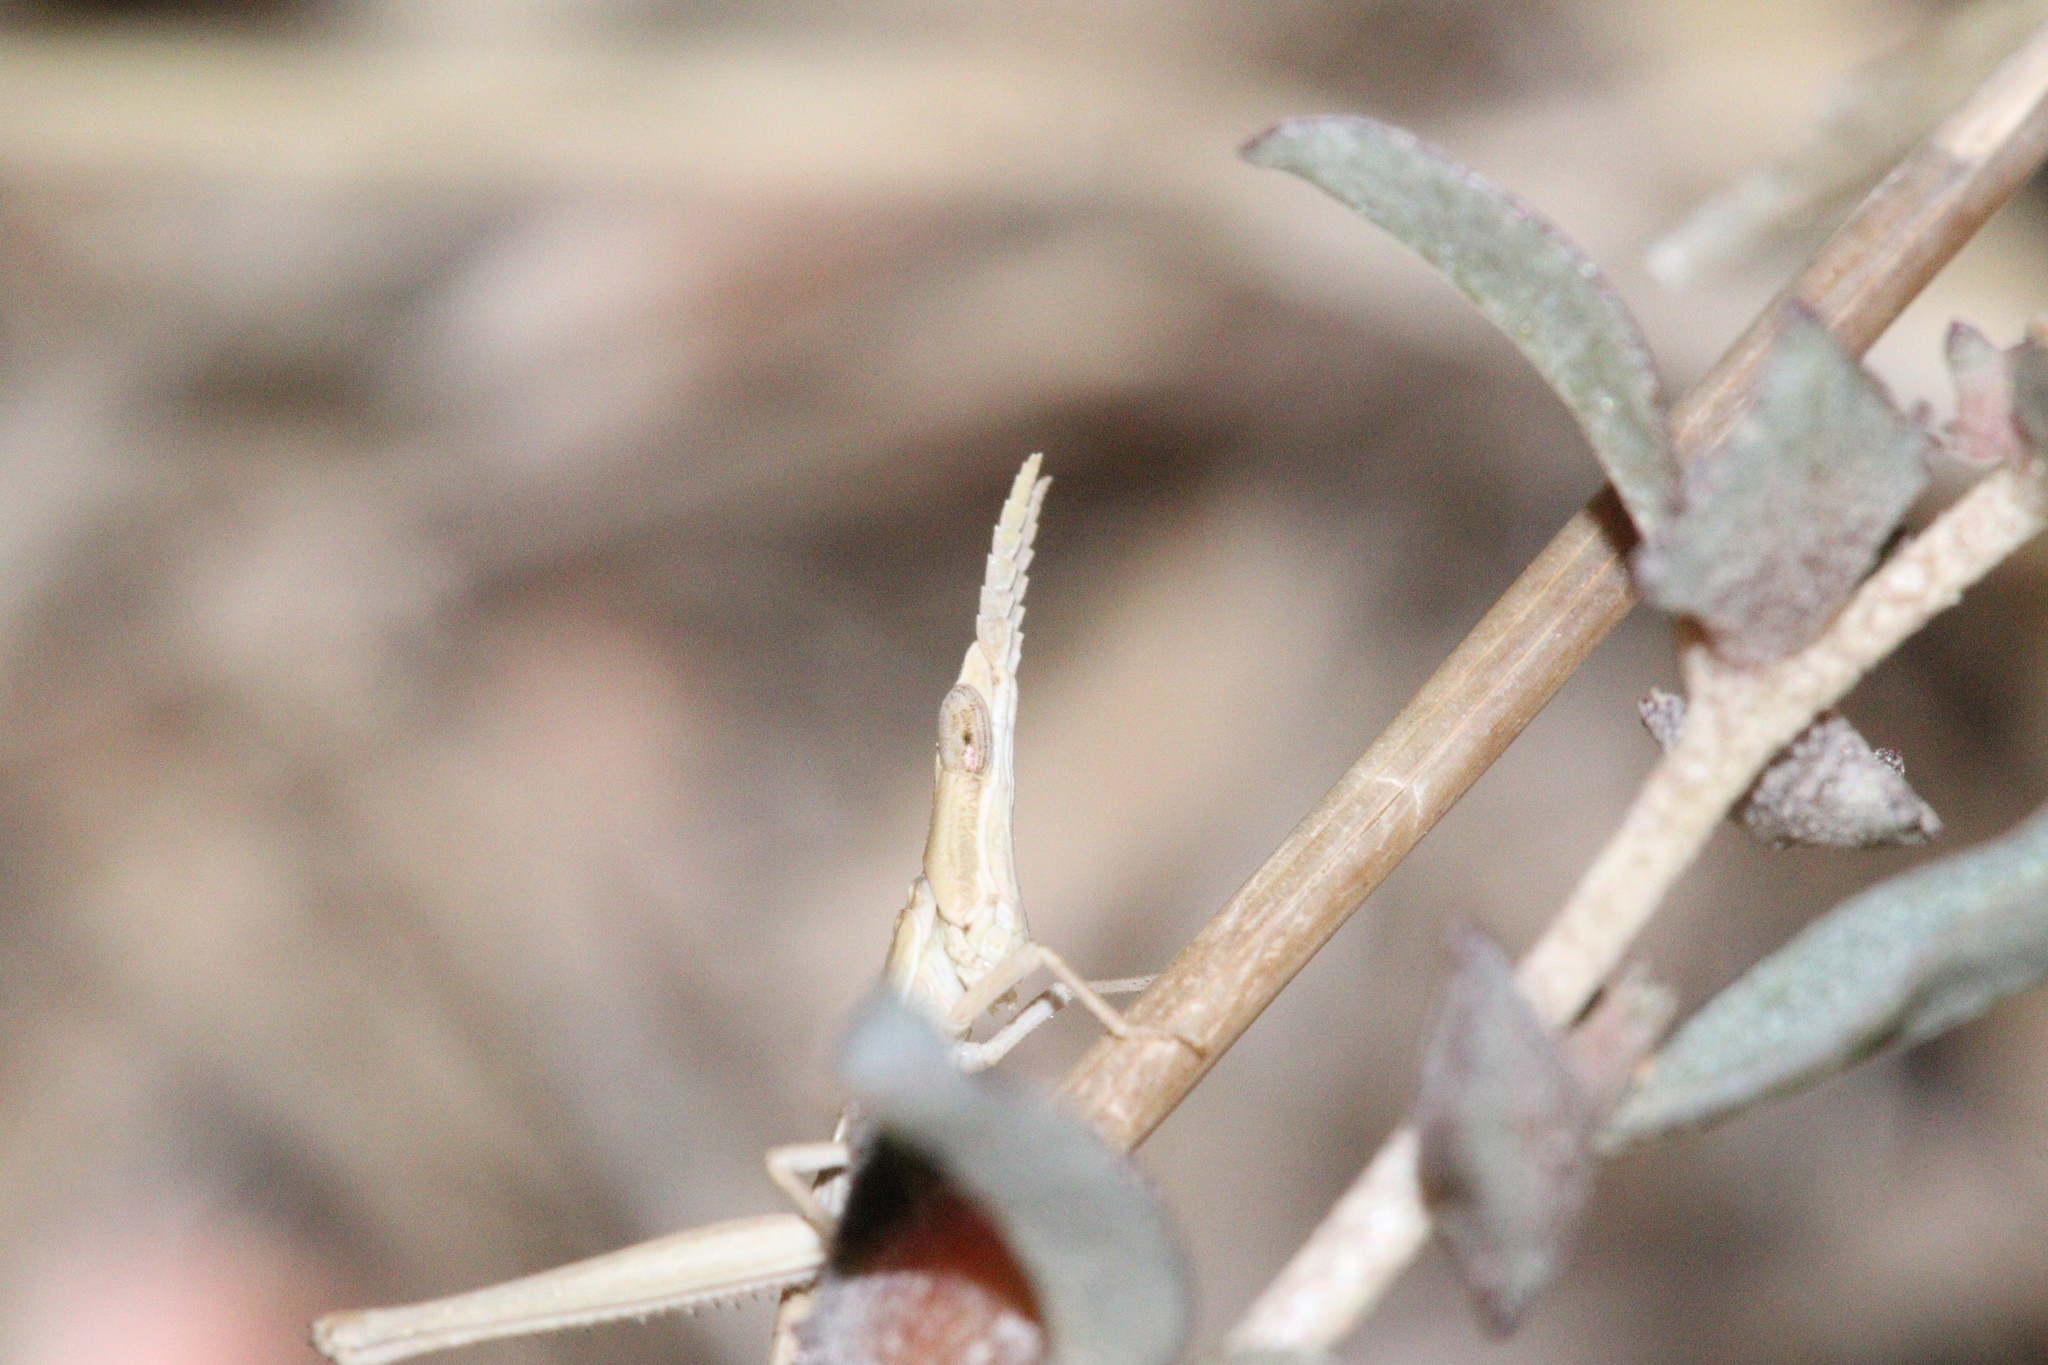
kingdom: Animalia
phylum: Arthropoda
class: Insecta
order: Orthoptera
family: Morabidae
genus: Vandiemenella
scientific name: Vandiemenella viatica
